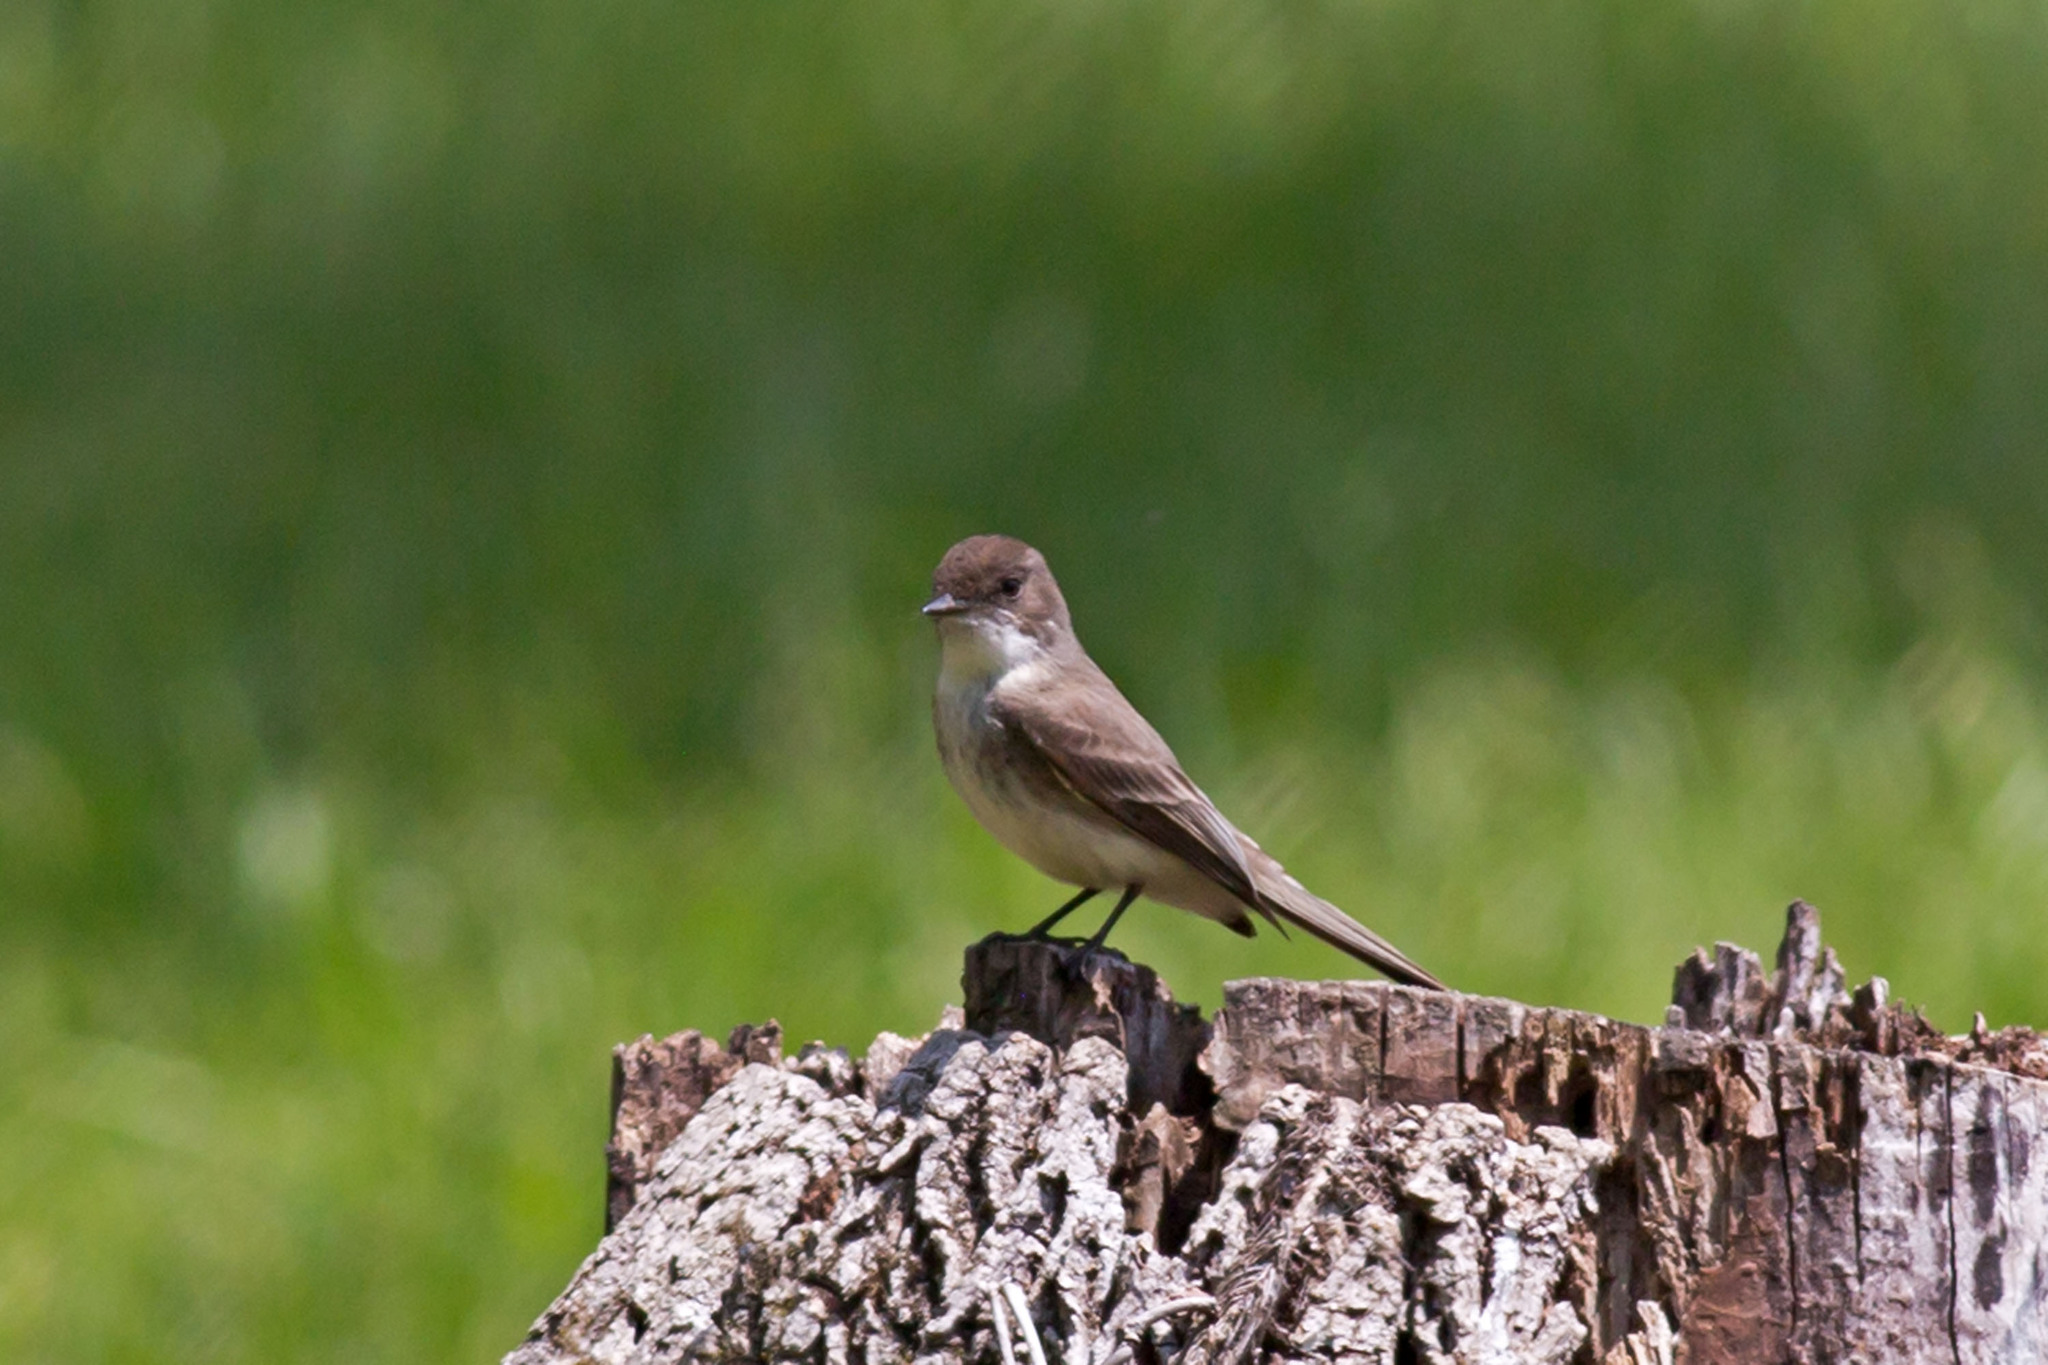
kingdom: Animalia
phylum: Chordata
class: Aves
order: Passeriformes
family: Tyrannidae
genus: Sayornis
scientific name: Sayornis phoebe
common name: Eastern phoebe
